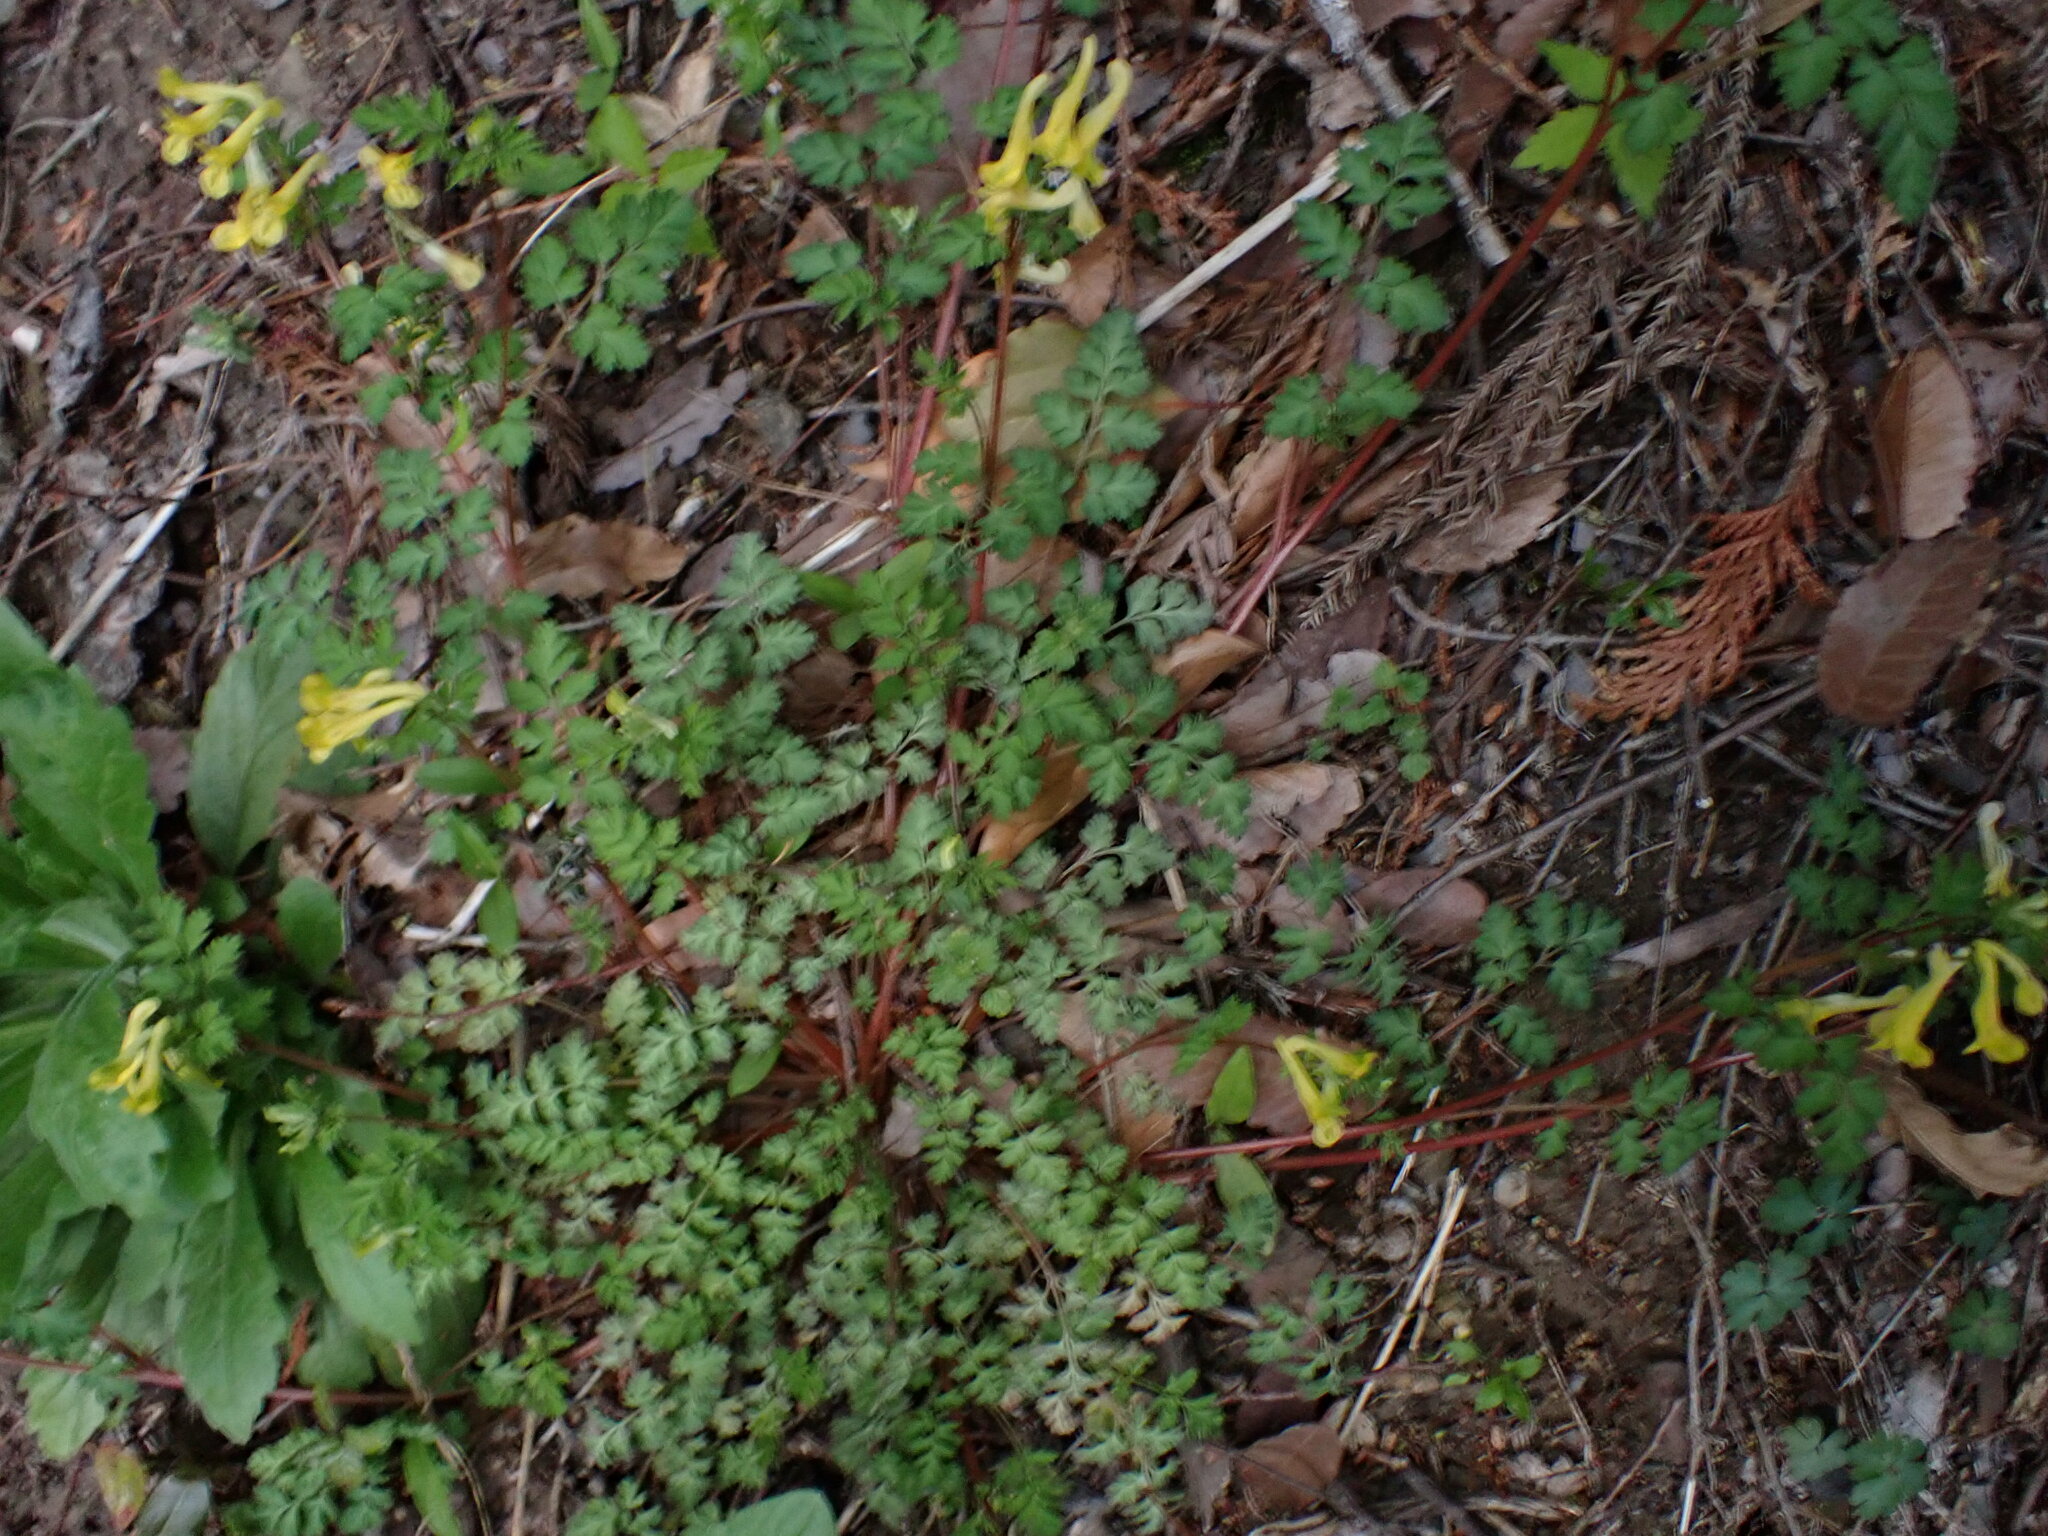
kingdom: Plantae
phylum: Tracheophyta
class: Magnoliopsida
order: Ranunculales
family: Papaveraceae
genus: Corydalis
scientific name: Corydalis pallida
